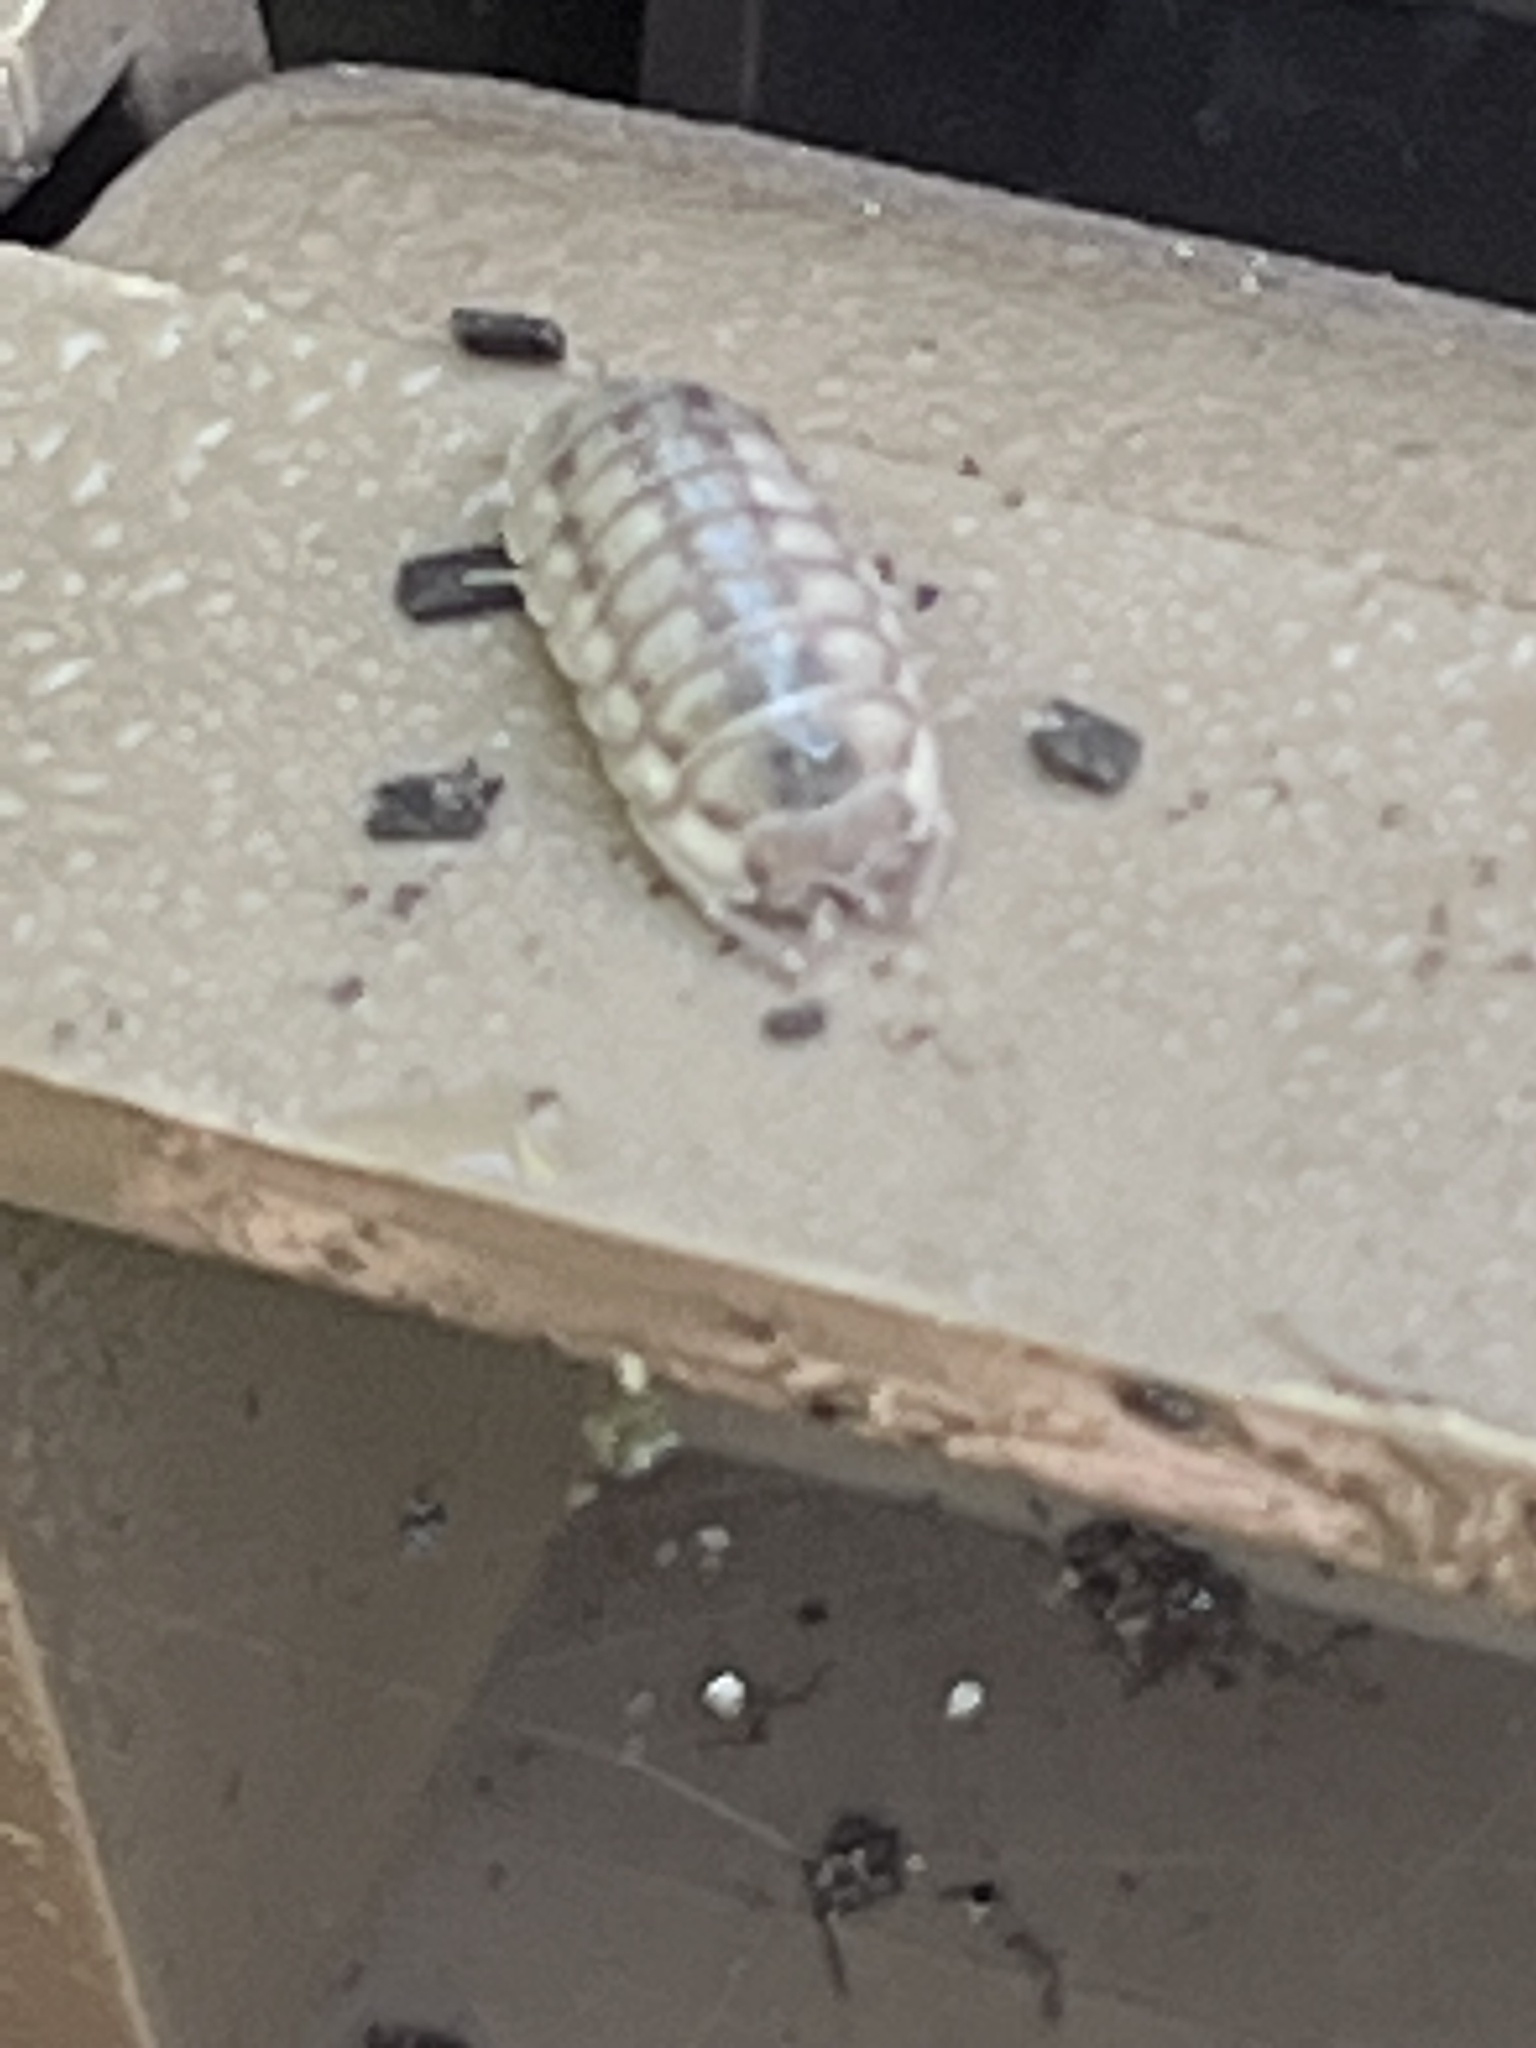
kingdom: Animalia
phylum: Arthropoda
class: Malacostraca
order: Isopoda
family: Armadillidiidae
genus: Armadillidium
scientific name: Armadillidium nasatum
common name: Isopod
